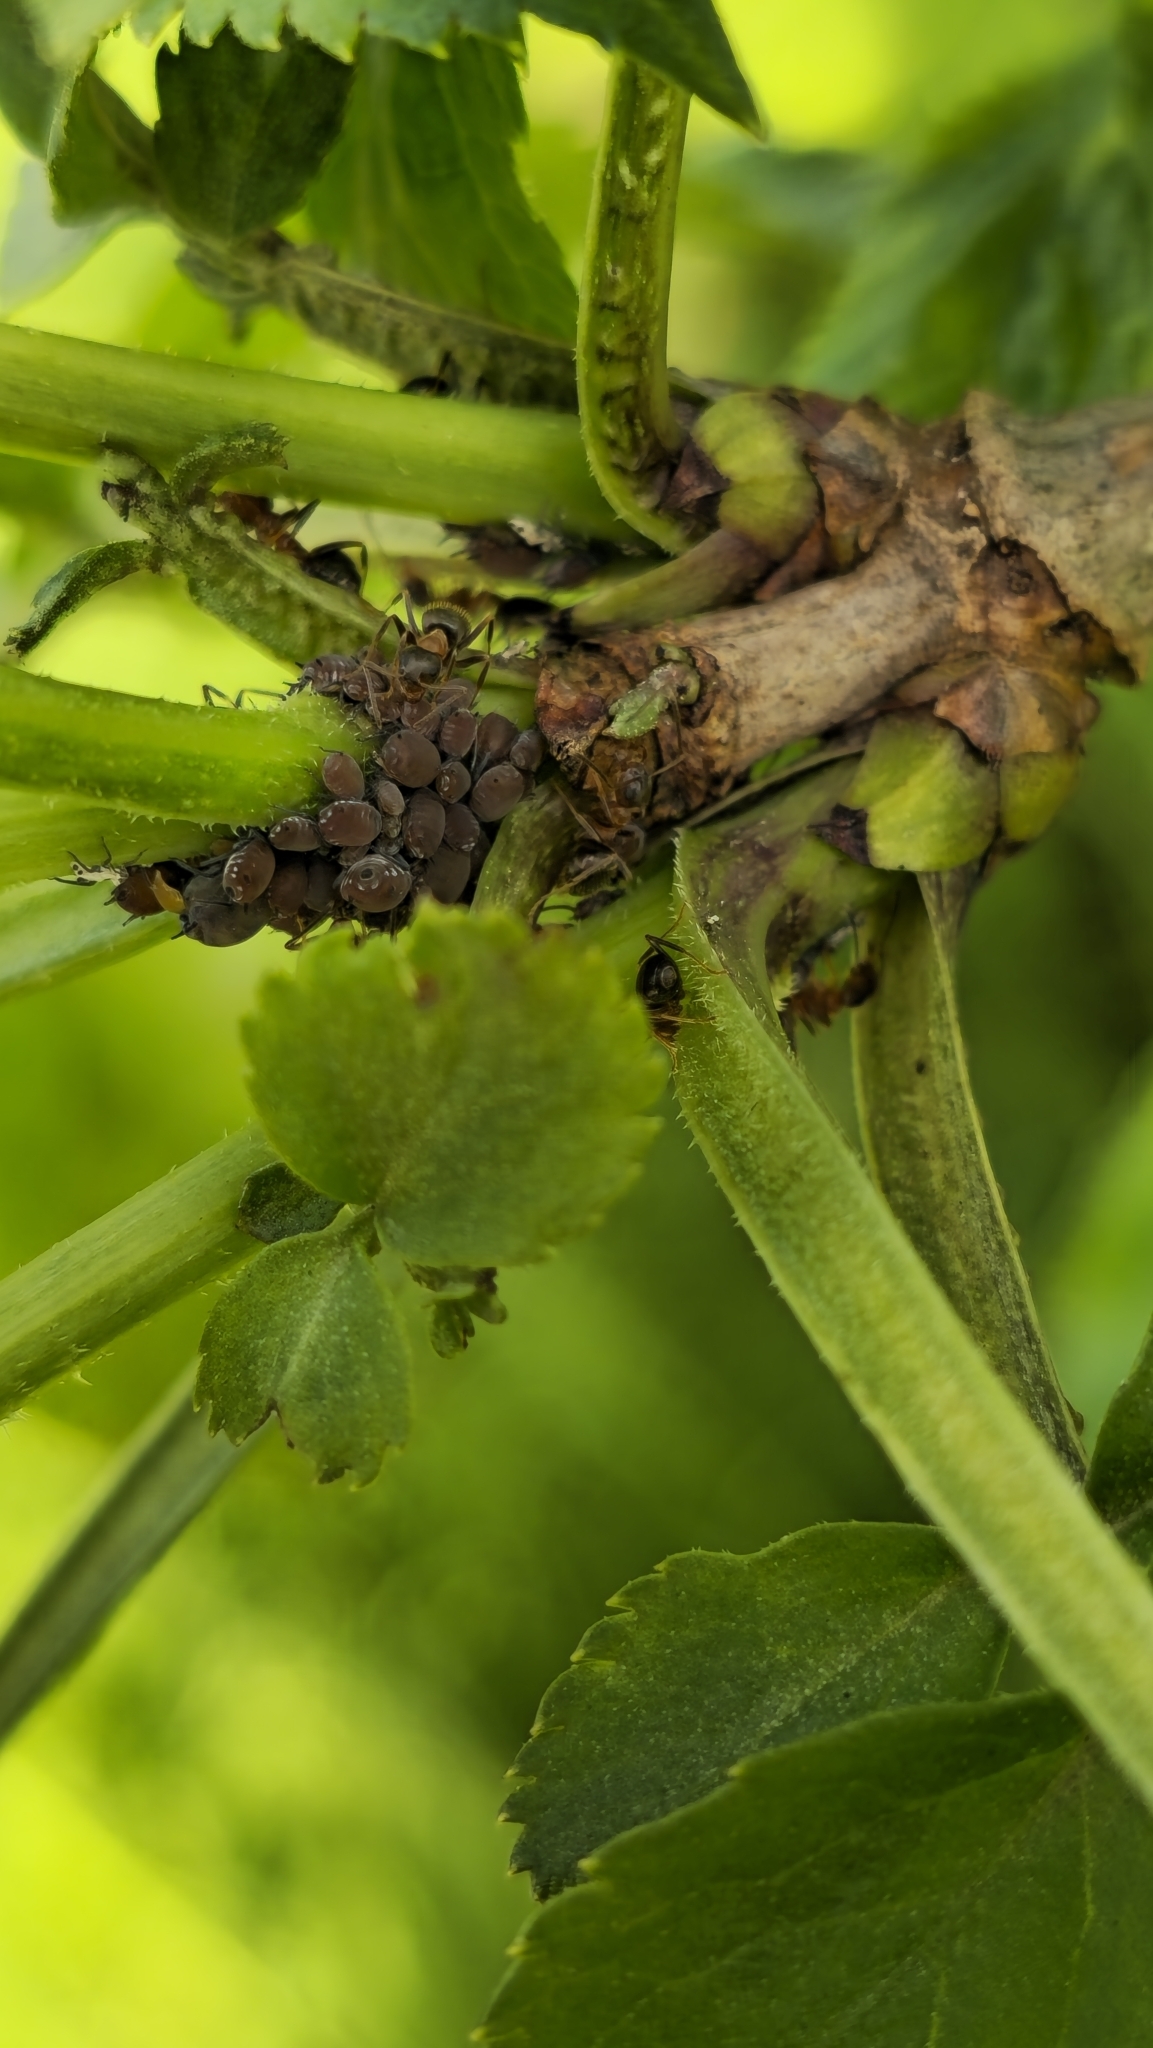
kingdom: Animalia
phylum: Arthropoda
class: Insecta
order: Hymenoptera
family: Formicidae
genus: Lasius
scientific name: Lasius emarginatus
